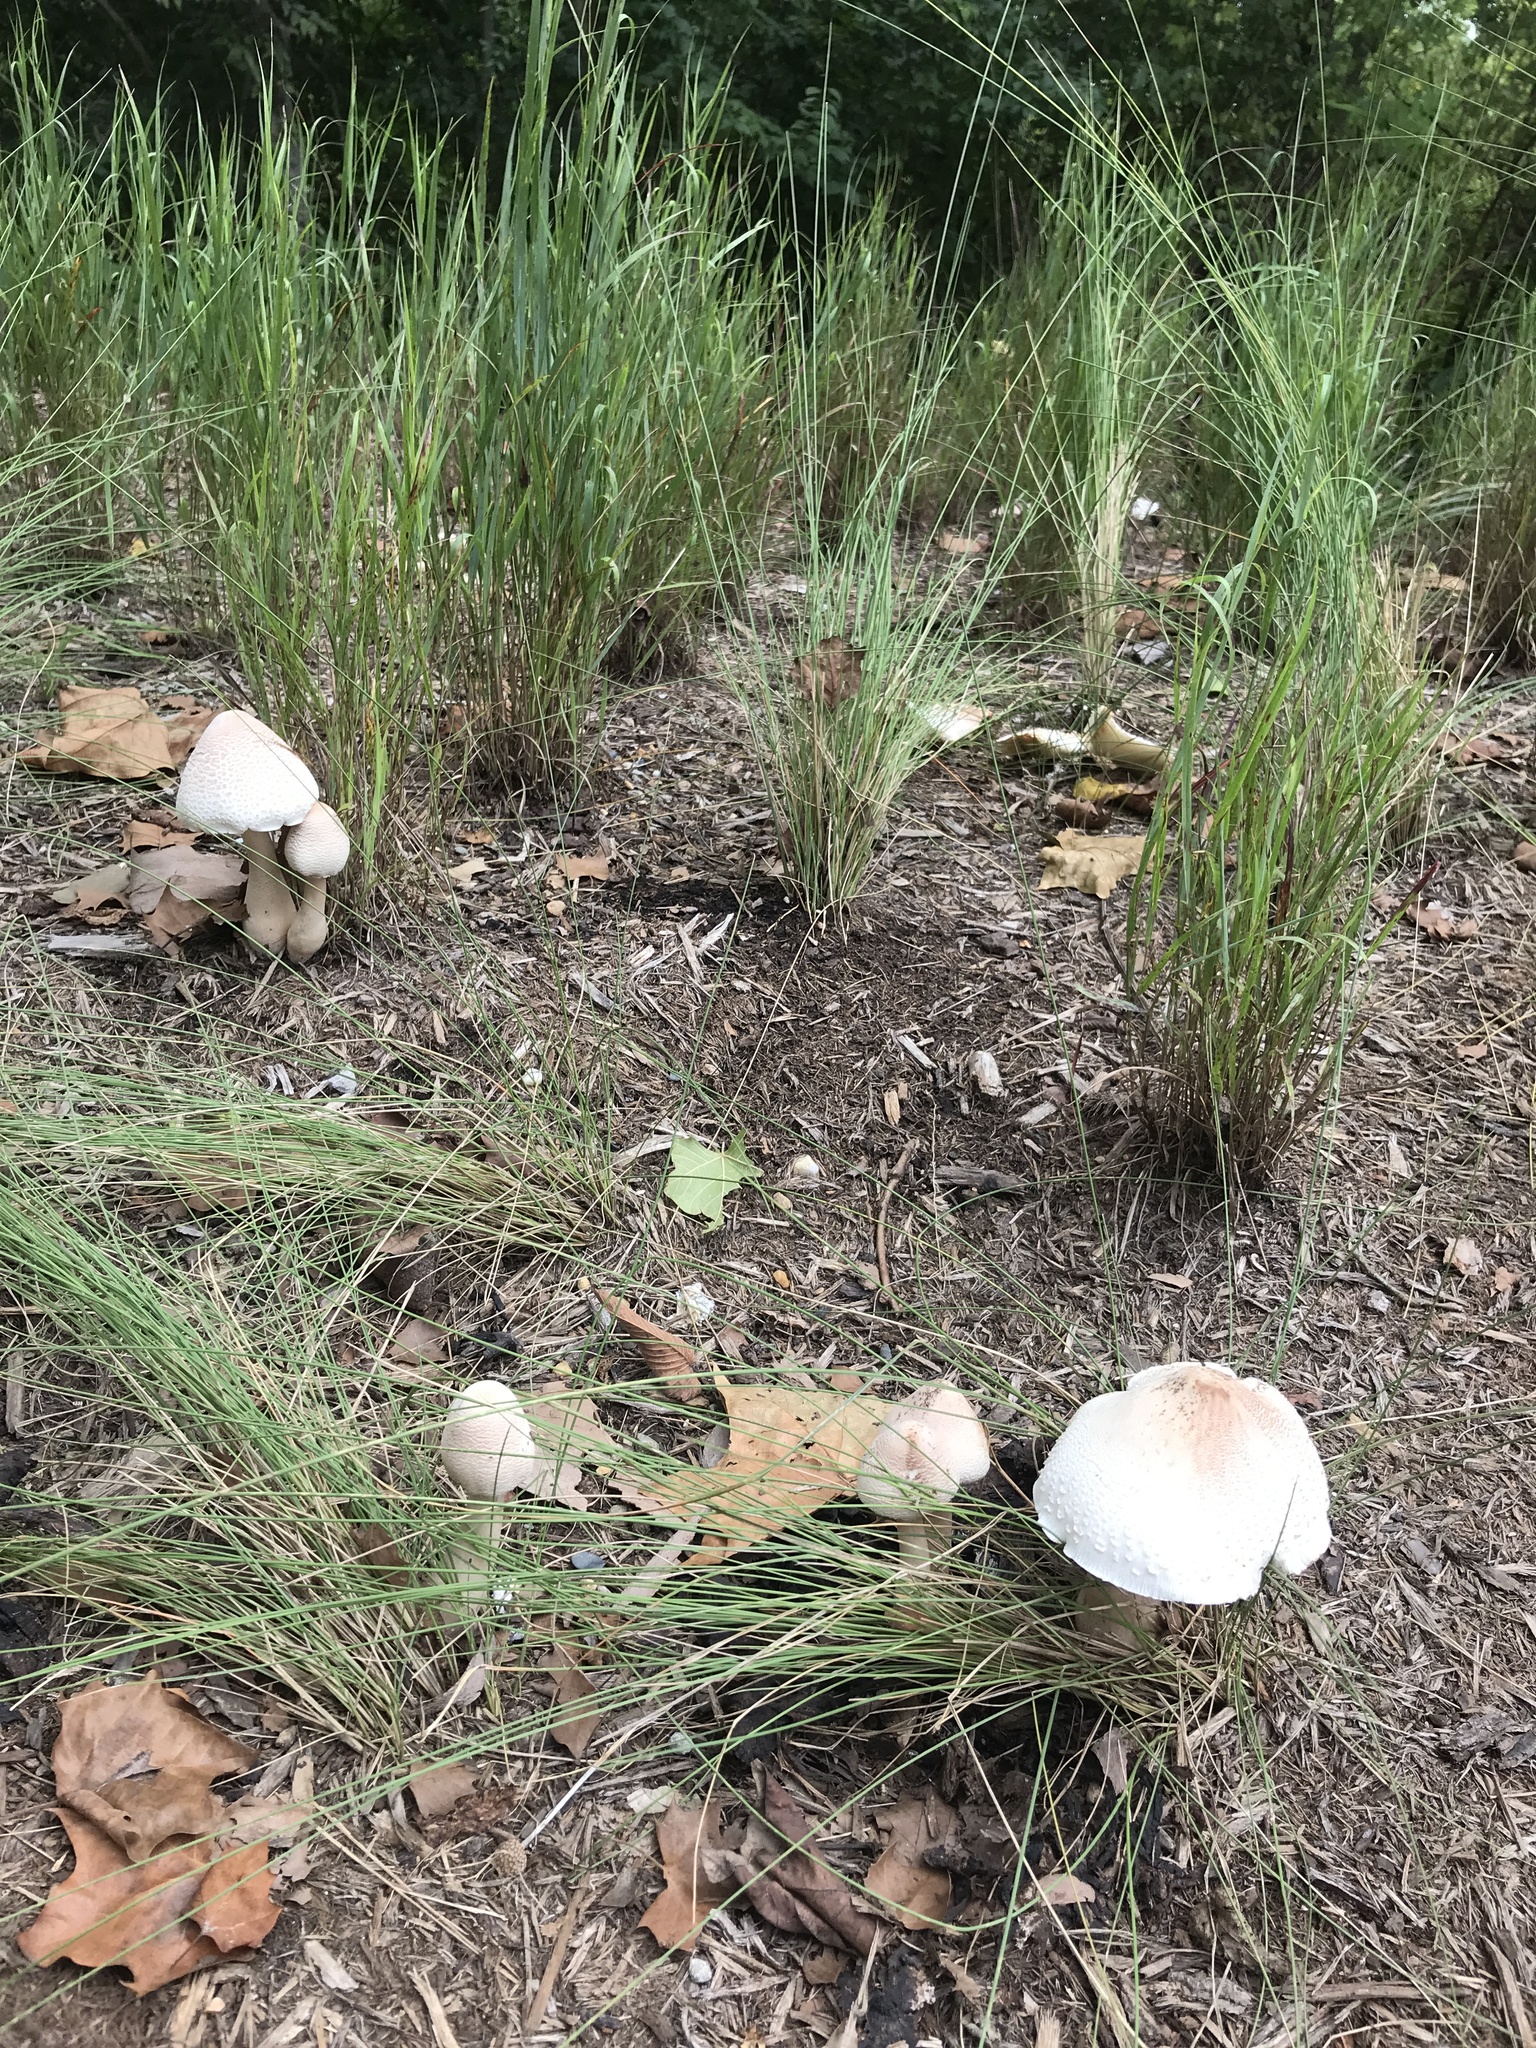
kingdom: Fungi
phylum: Basidiomycota
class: Agaricomycetes
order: Agaricales
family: Agaricaceae
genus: Leucoagaricus
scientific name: Leucoagaricus americanus
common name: Reddening lepiota
